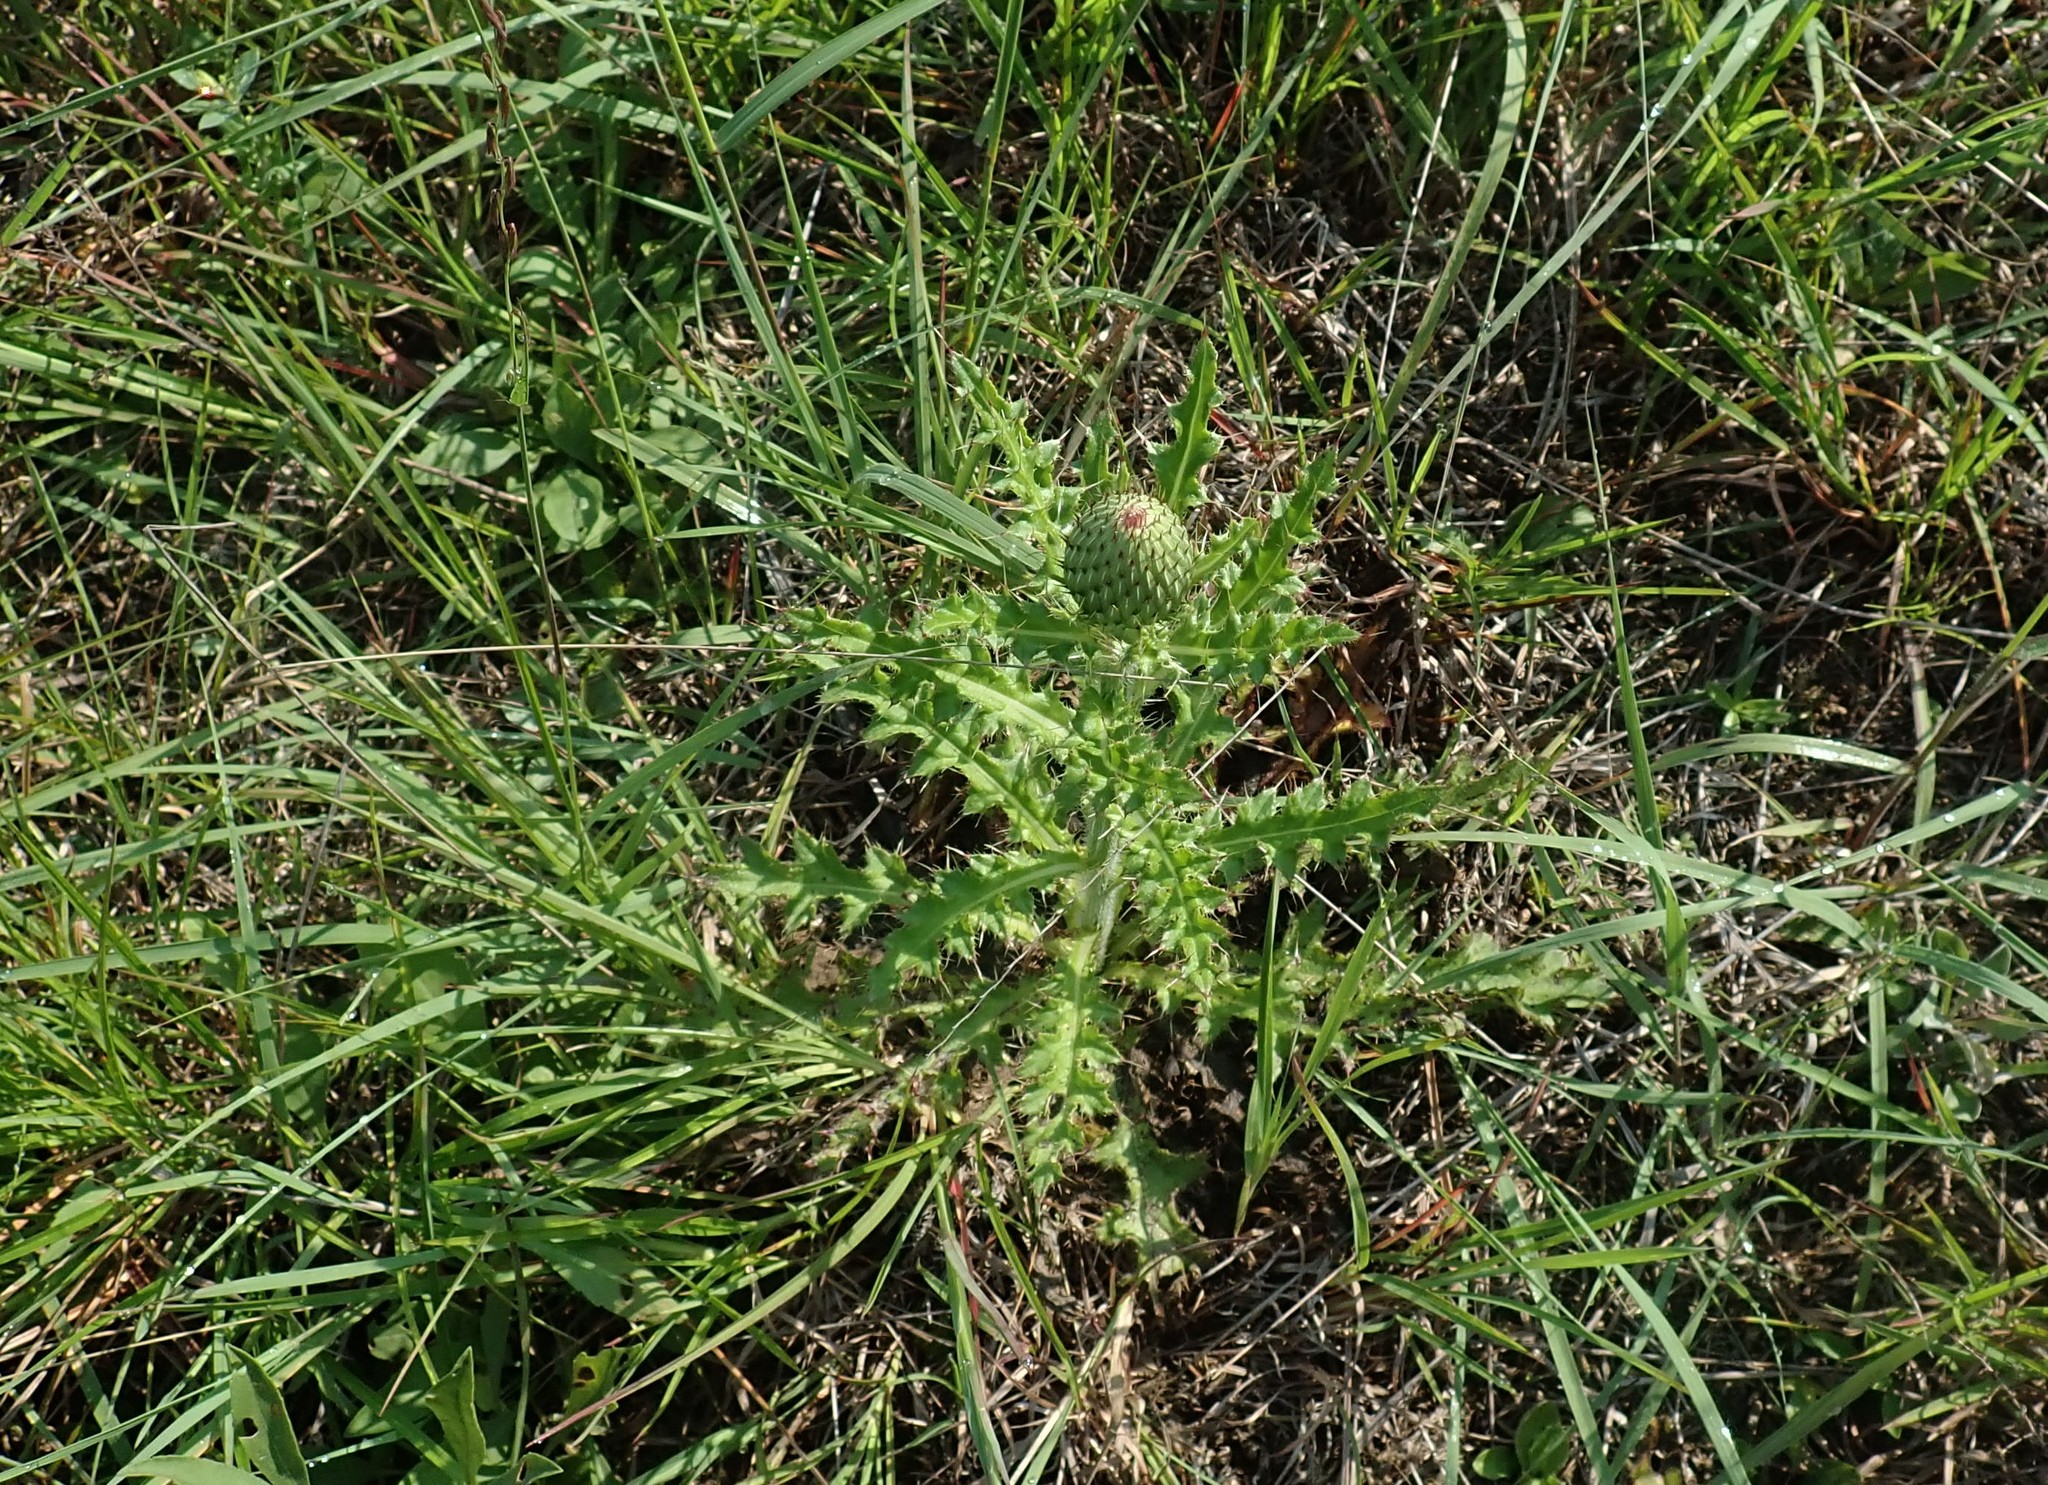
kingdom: Plantae
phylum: Tracheophyta
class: Magnoliopsida
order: Asterales
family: Asteraceae
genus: Cirsium
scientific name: Cirsium pumilum
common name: Pasture thistle
